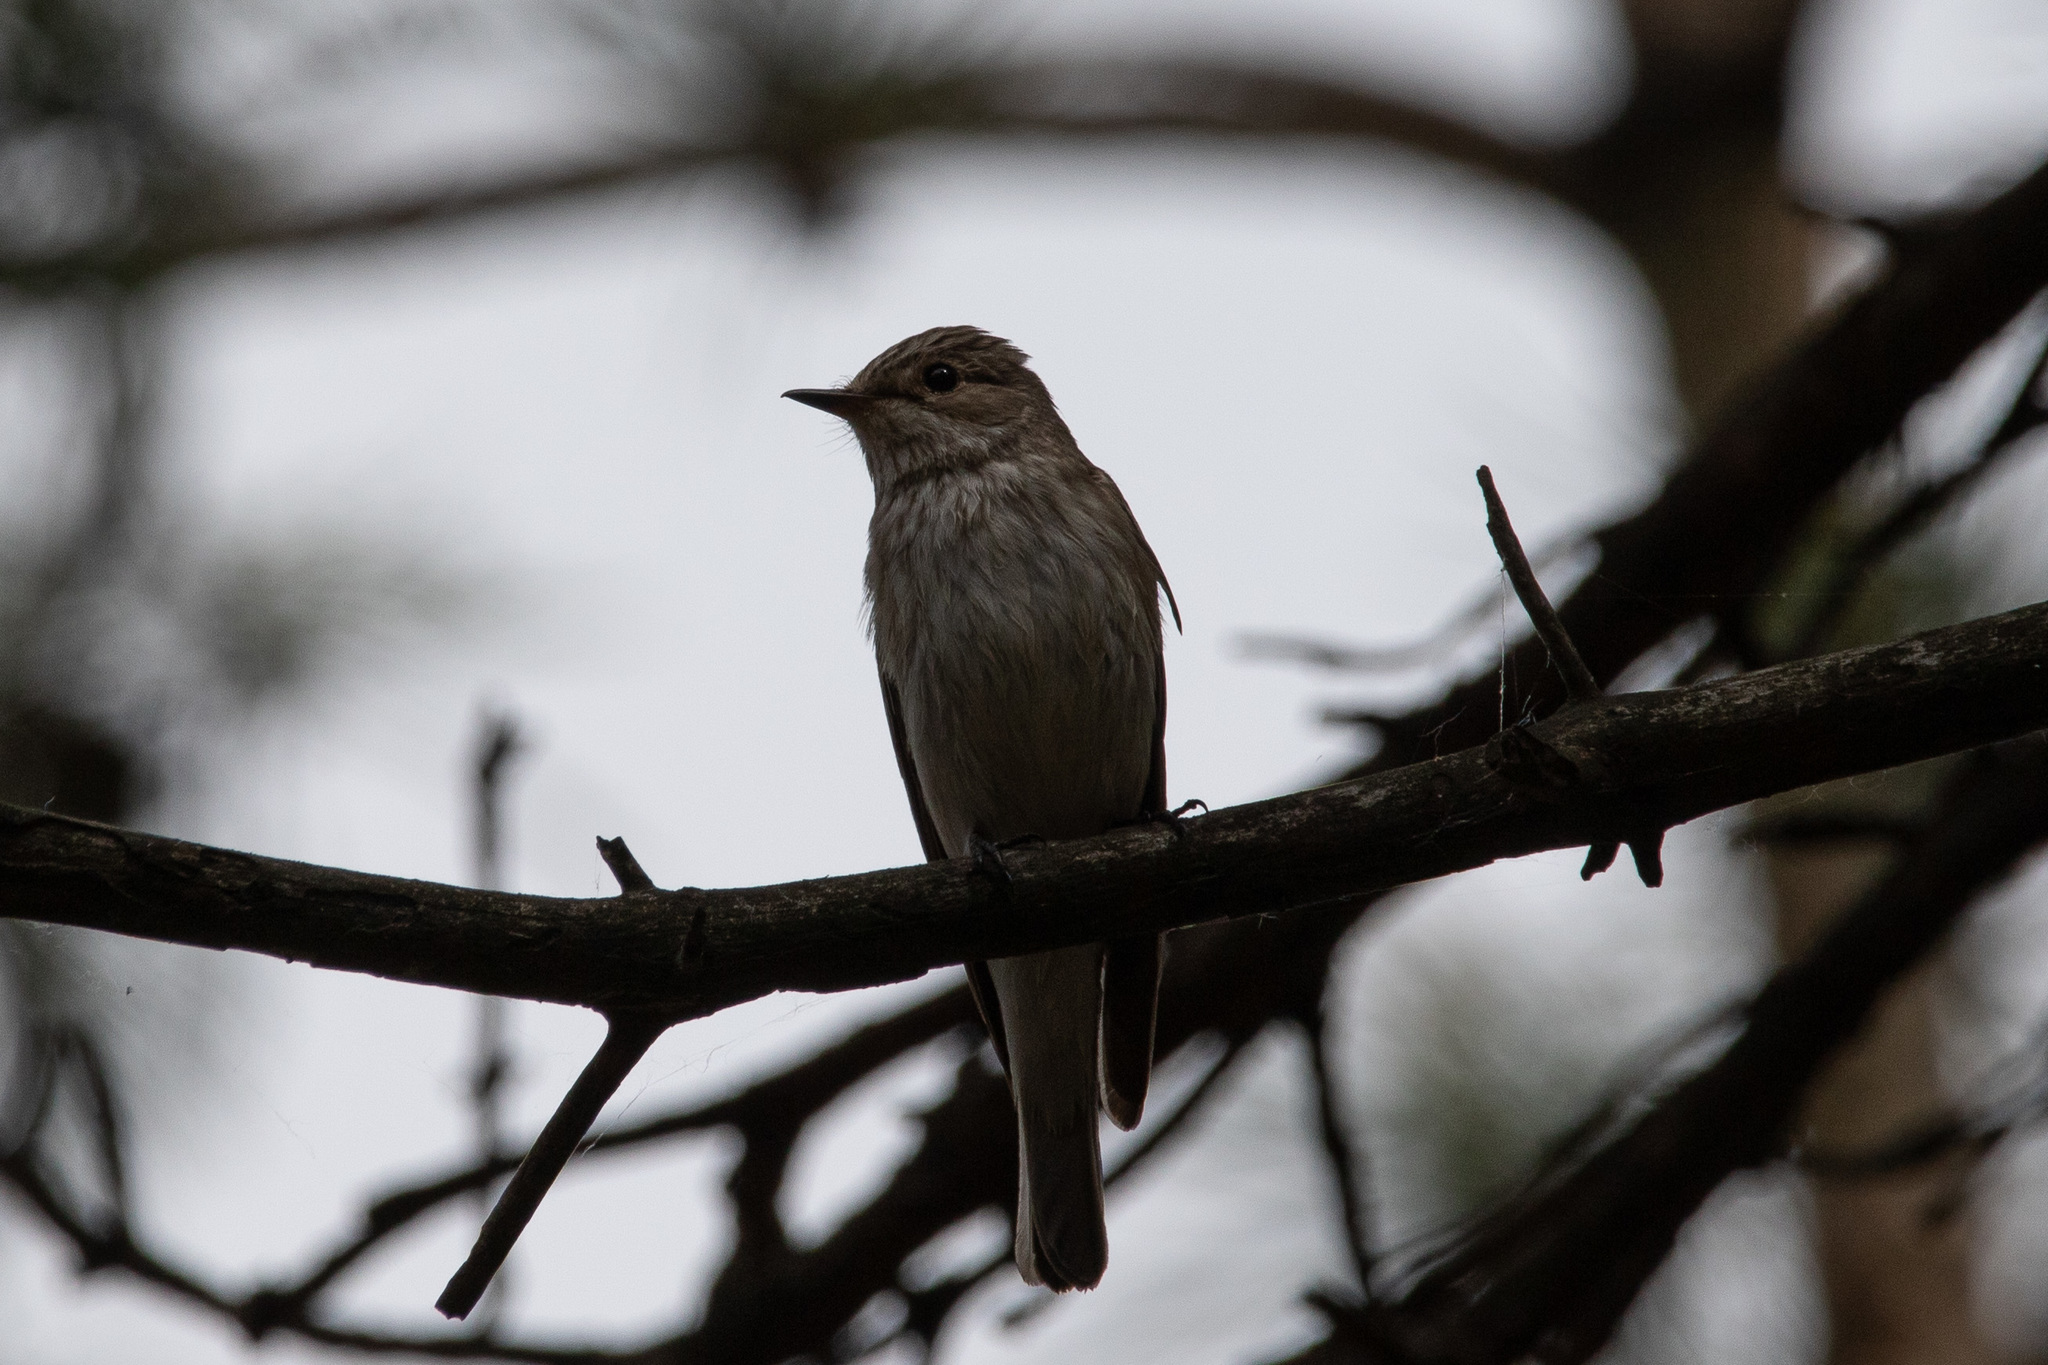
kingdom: Animalia
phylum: Chordata
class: Aves
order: Passeriformes
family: Muscicapidae
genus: Muscicapa
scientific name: Muscicapa striata
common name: Spotted flycatcher
